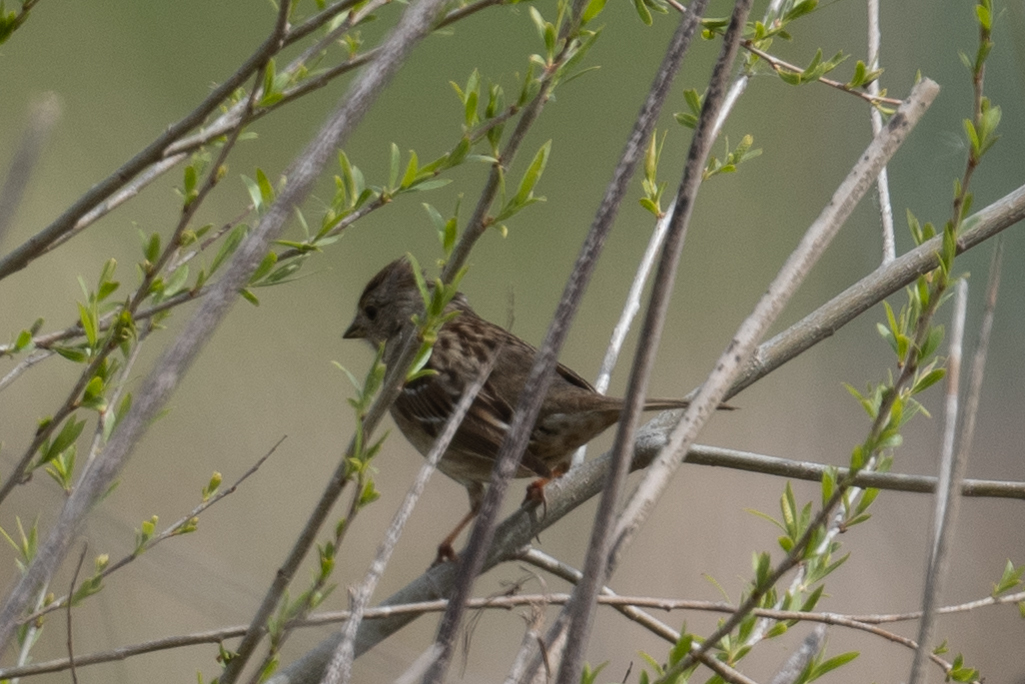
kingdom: Animalia
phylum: Chordata
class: Aves
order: Passeriformes
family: Passerellidae
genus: Zonotrichia
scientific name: Zonotrichia atricapilla
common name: Golden-crowned sparrow
